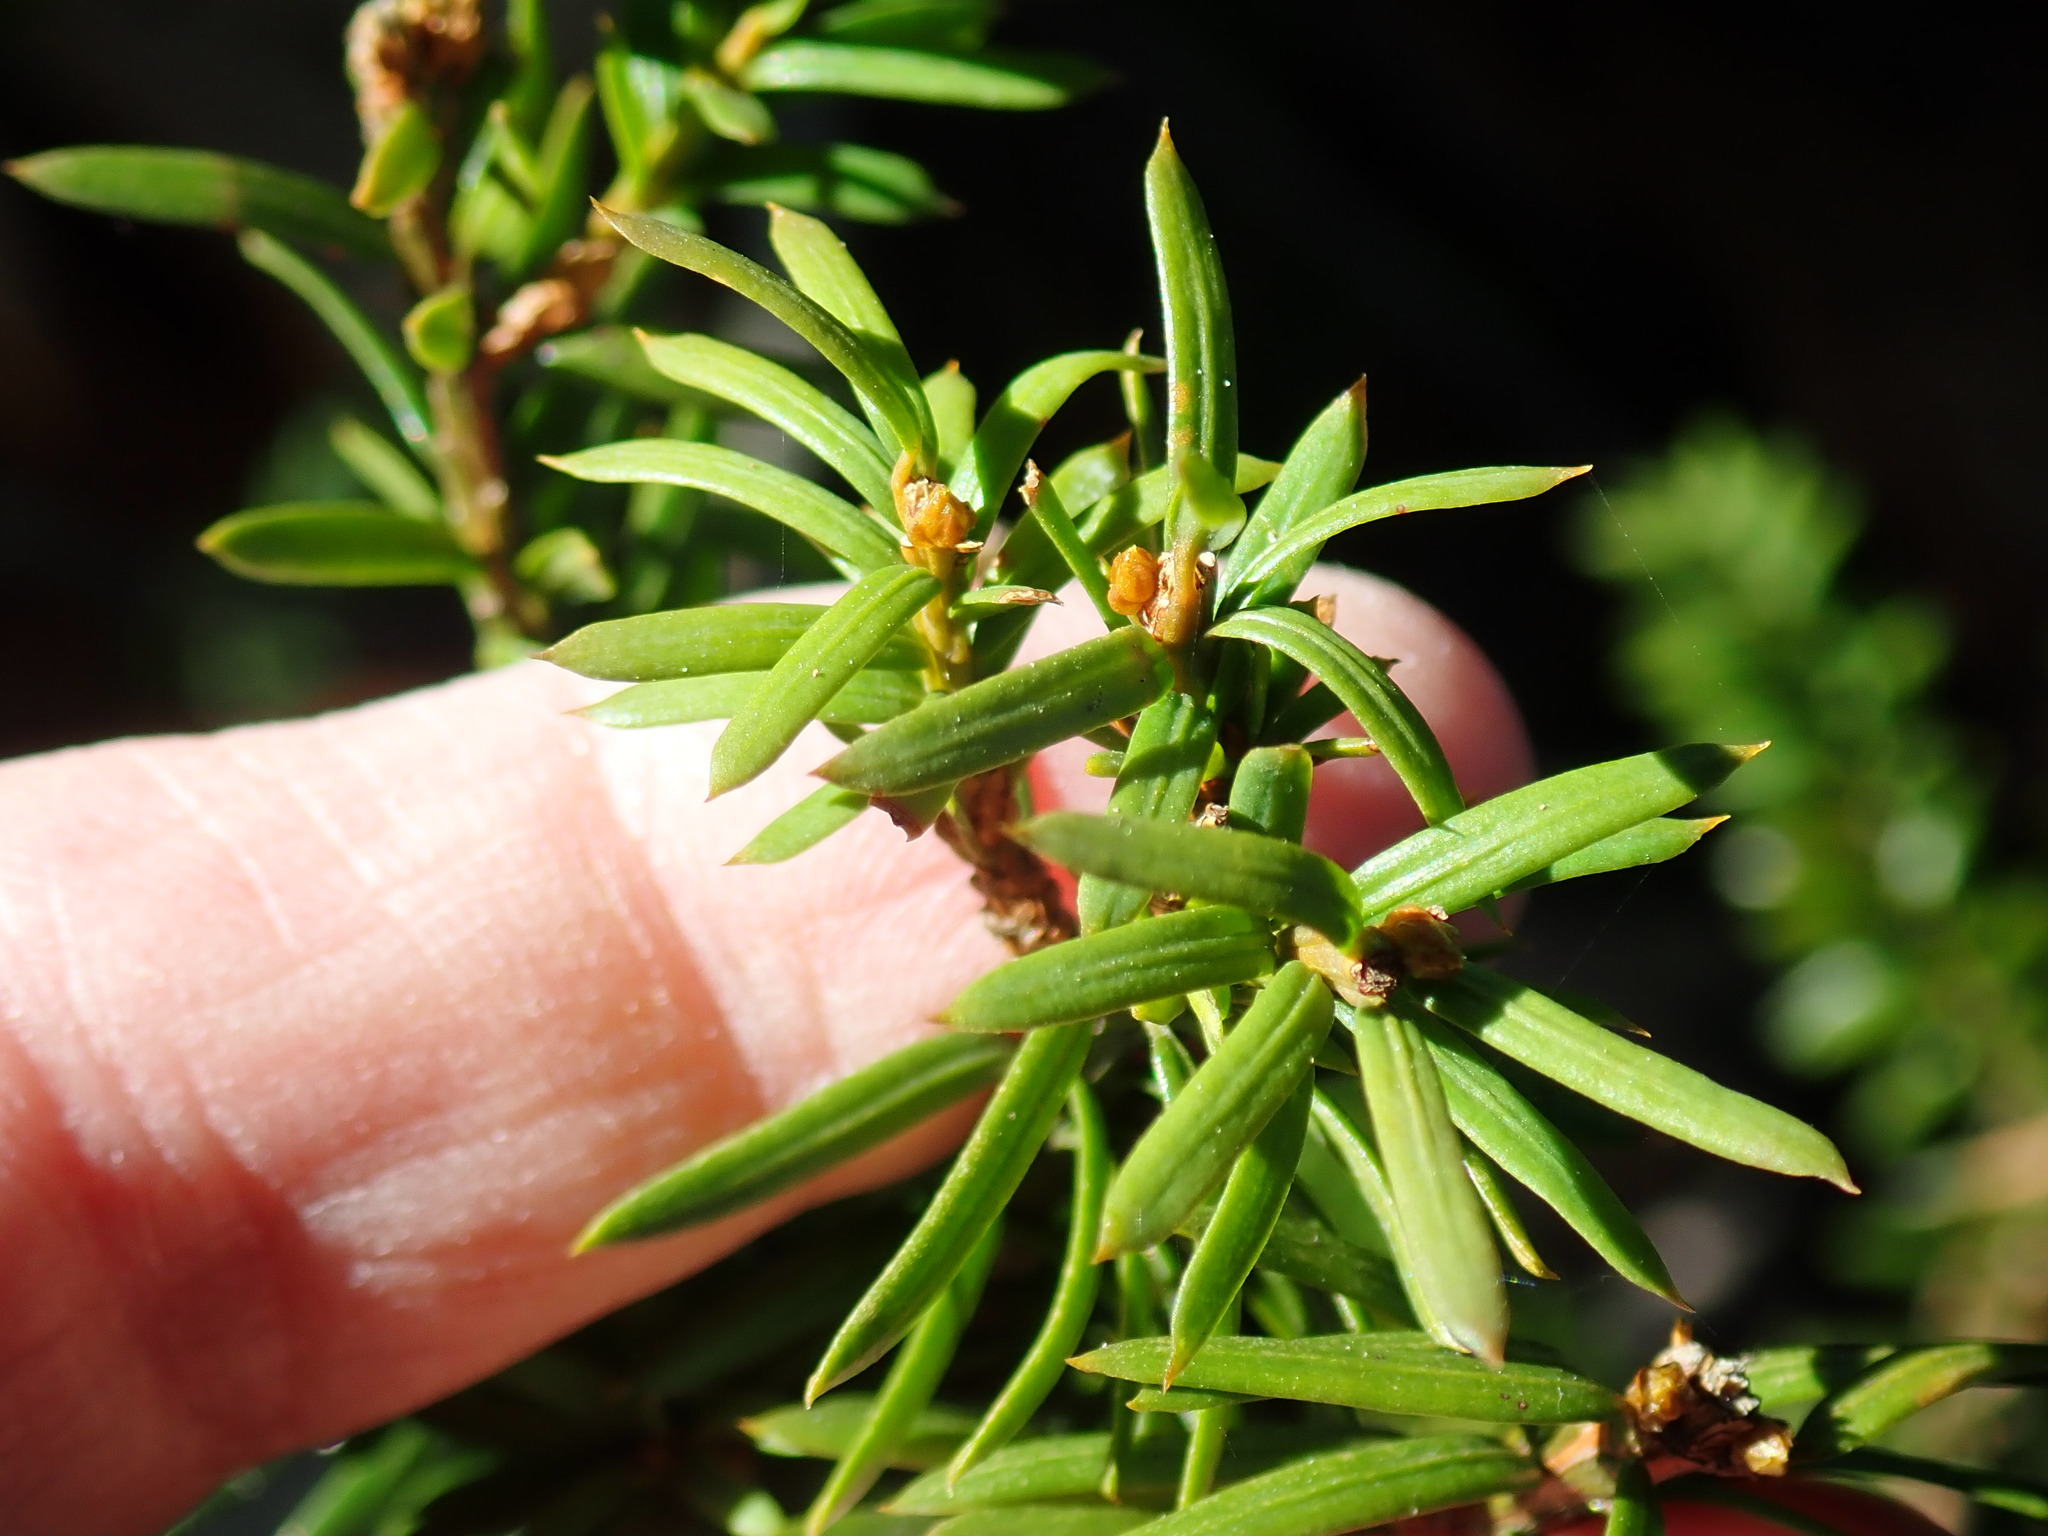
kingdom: Plantae
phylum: Tracheophyta
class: Pinopsida
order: Pinales
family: Taxaceae
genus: Taxus
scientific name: Taxus canadensis
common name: American yew
